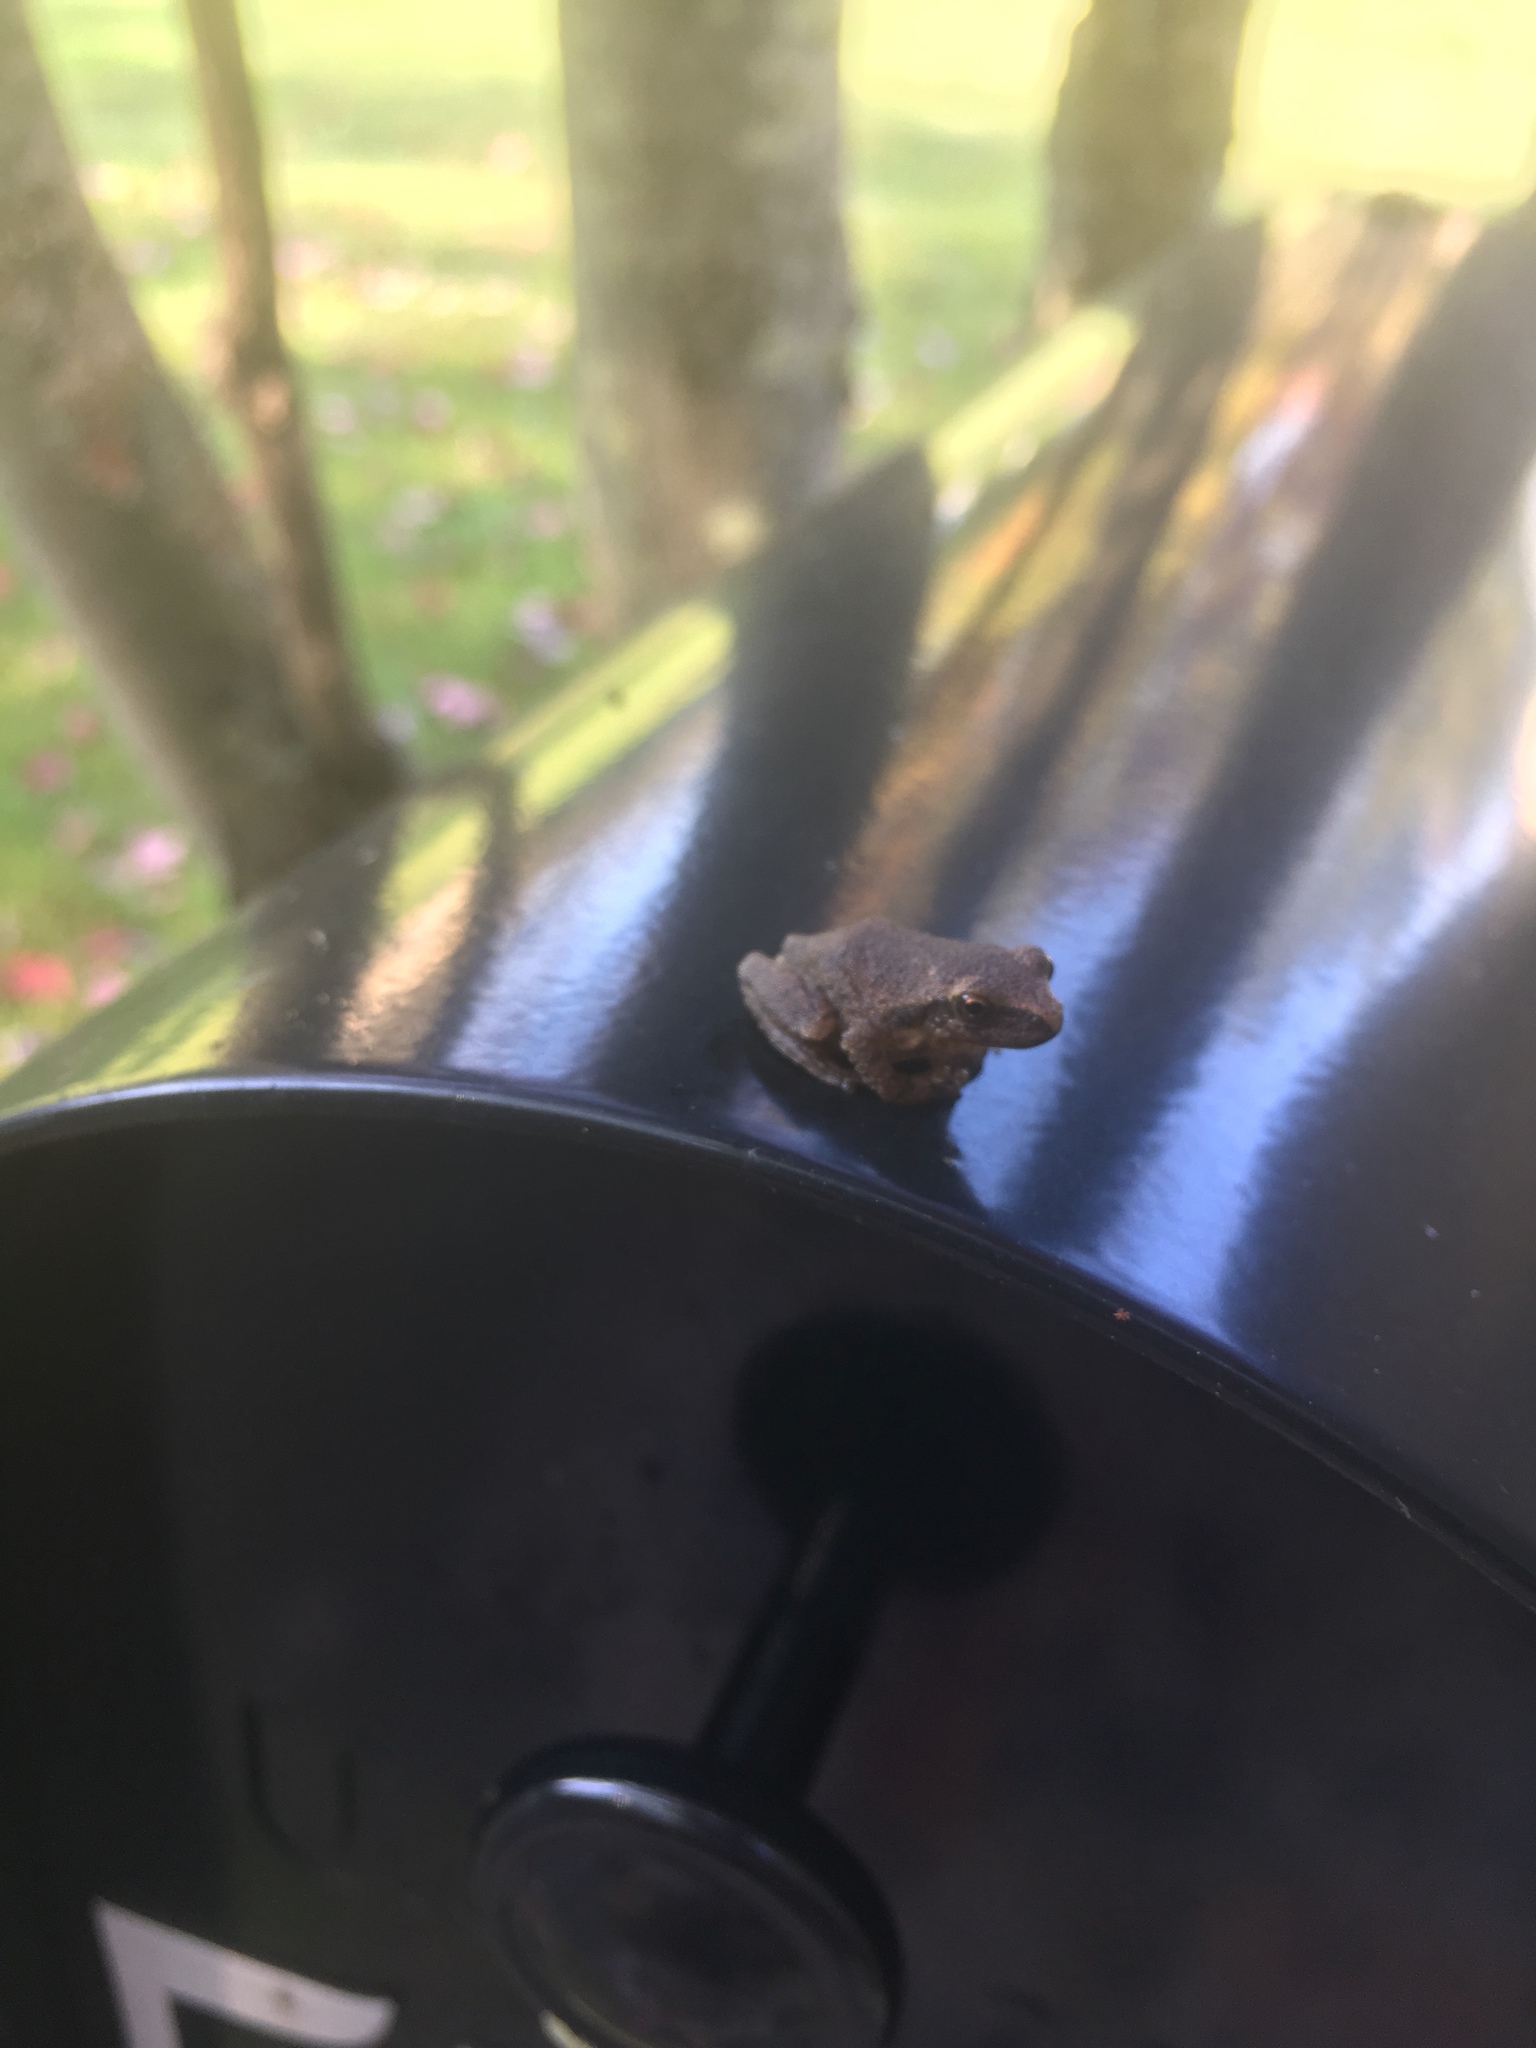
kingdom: Animalia
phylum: Chordata
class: Amphibia
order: Anura
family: Hylidae
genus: Pseudacris
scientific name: Pseudacris crucifer
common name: Spring peeper
